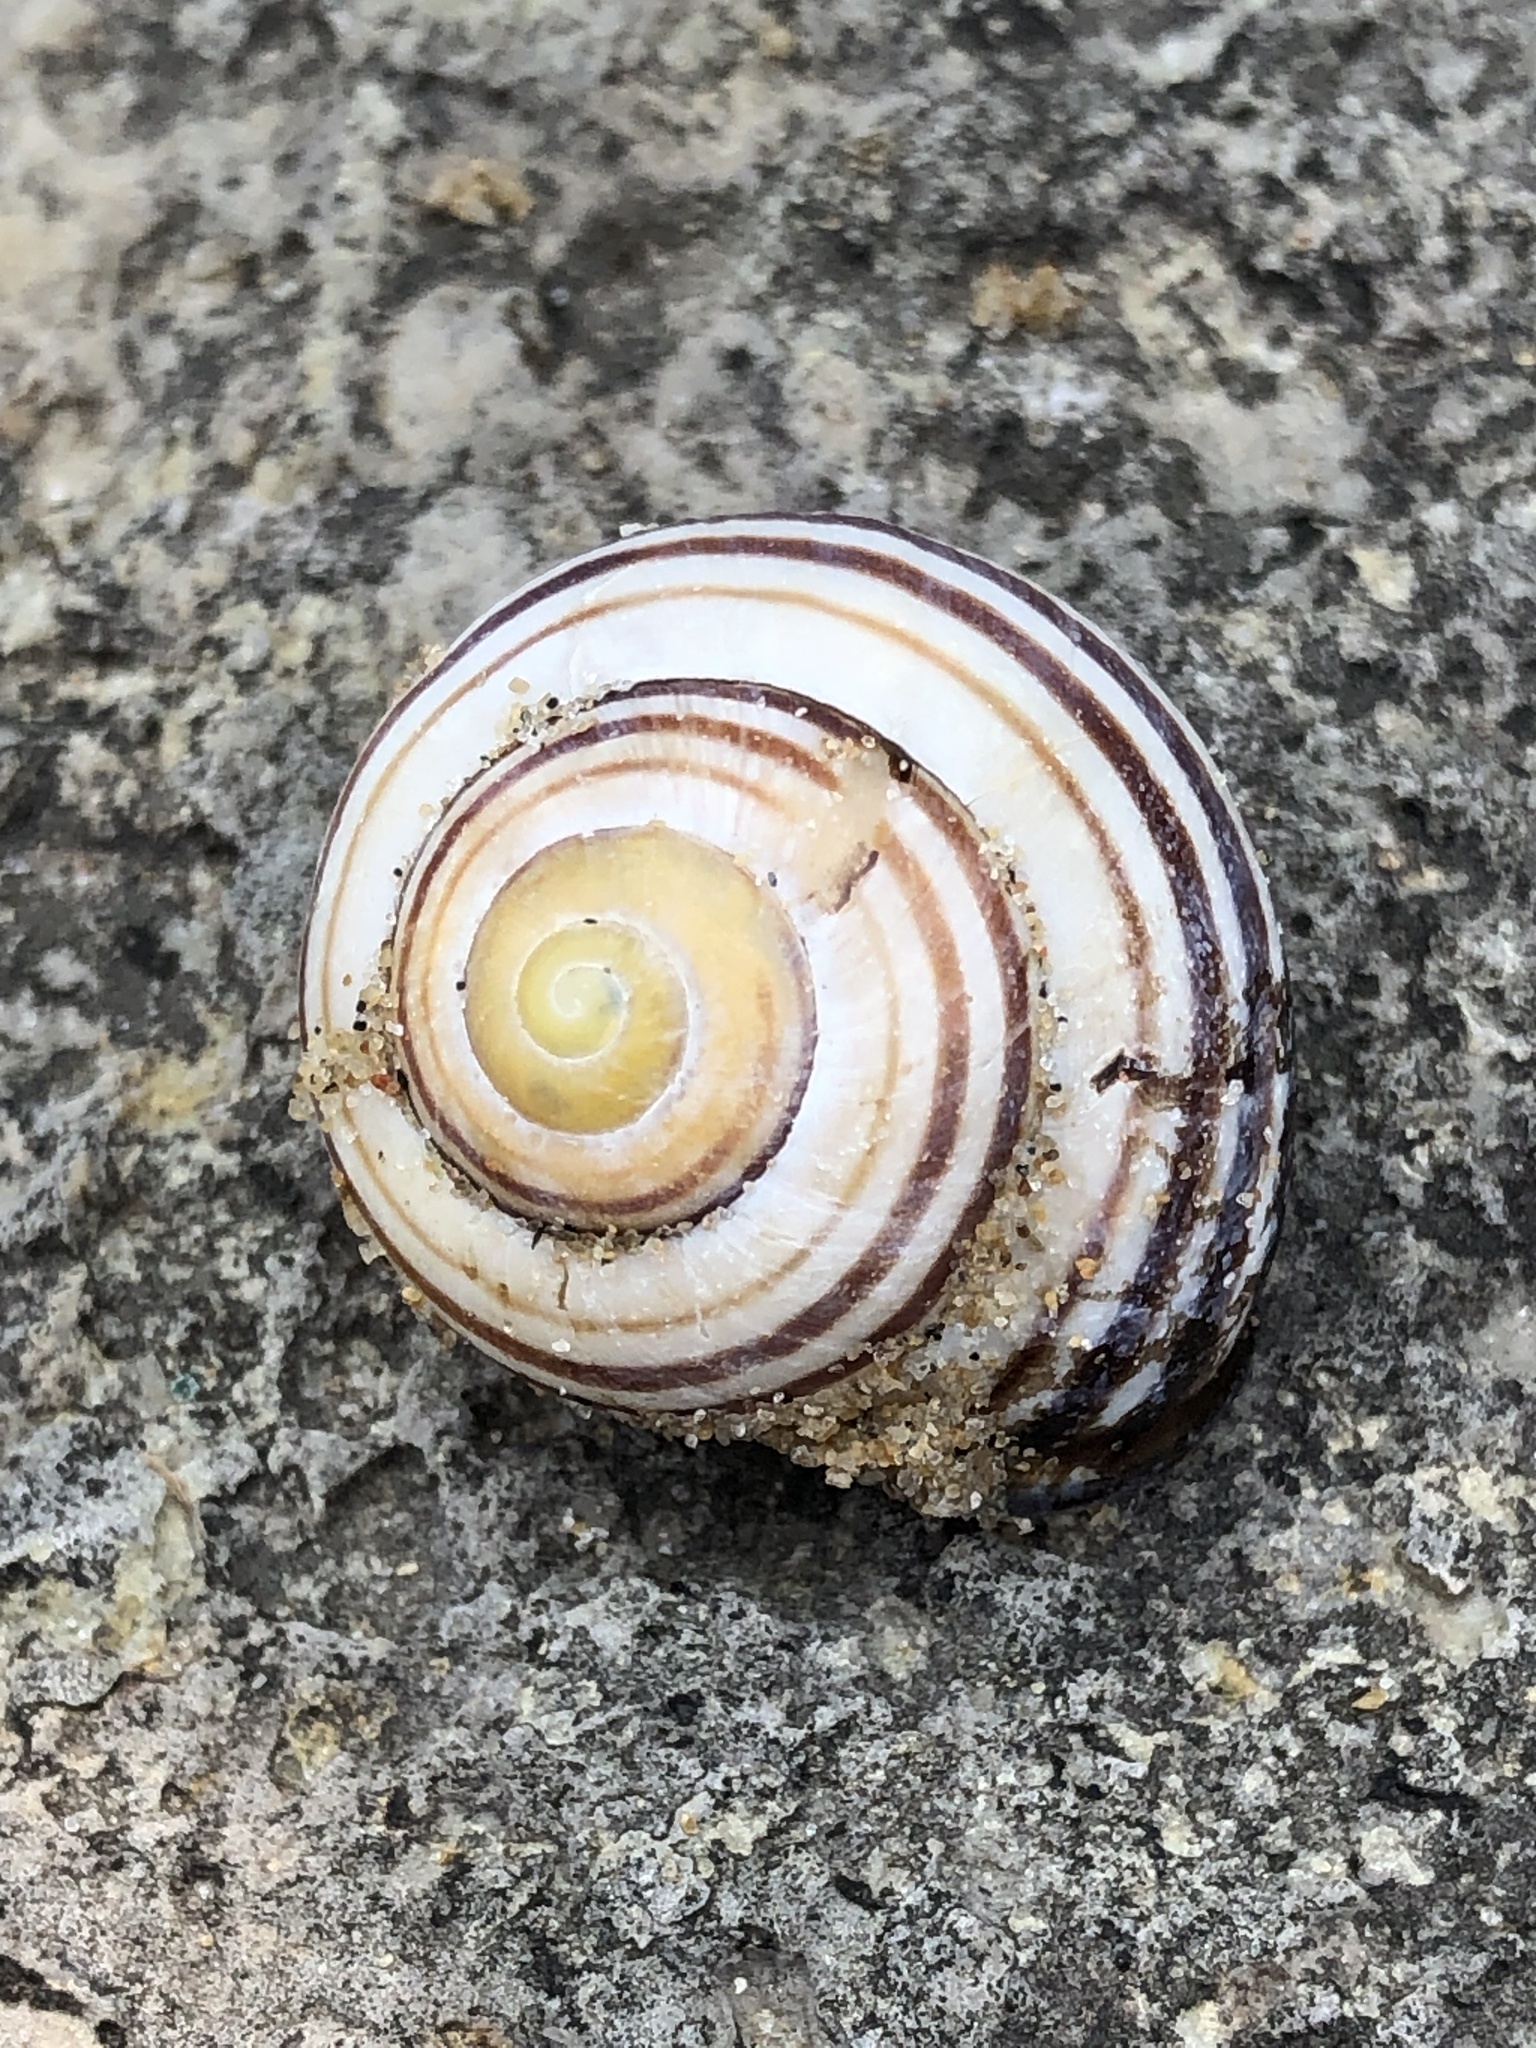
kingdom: Animalia
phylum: Mollusca
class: Gastropoda
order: Stylommatophora
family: Helicidae
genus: Cepaea
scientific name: Cepaea nemoralis
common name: Grovesnail
